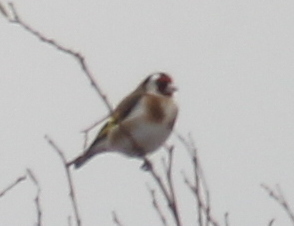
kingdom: Animalia
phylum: Chordata
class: Aves
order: Passeriformes
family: Fringillidae
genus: Carduelis
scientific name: Carduelis carduelis
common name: European goldfinch
